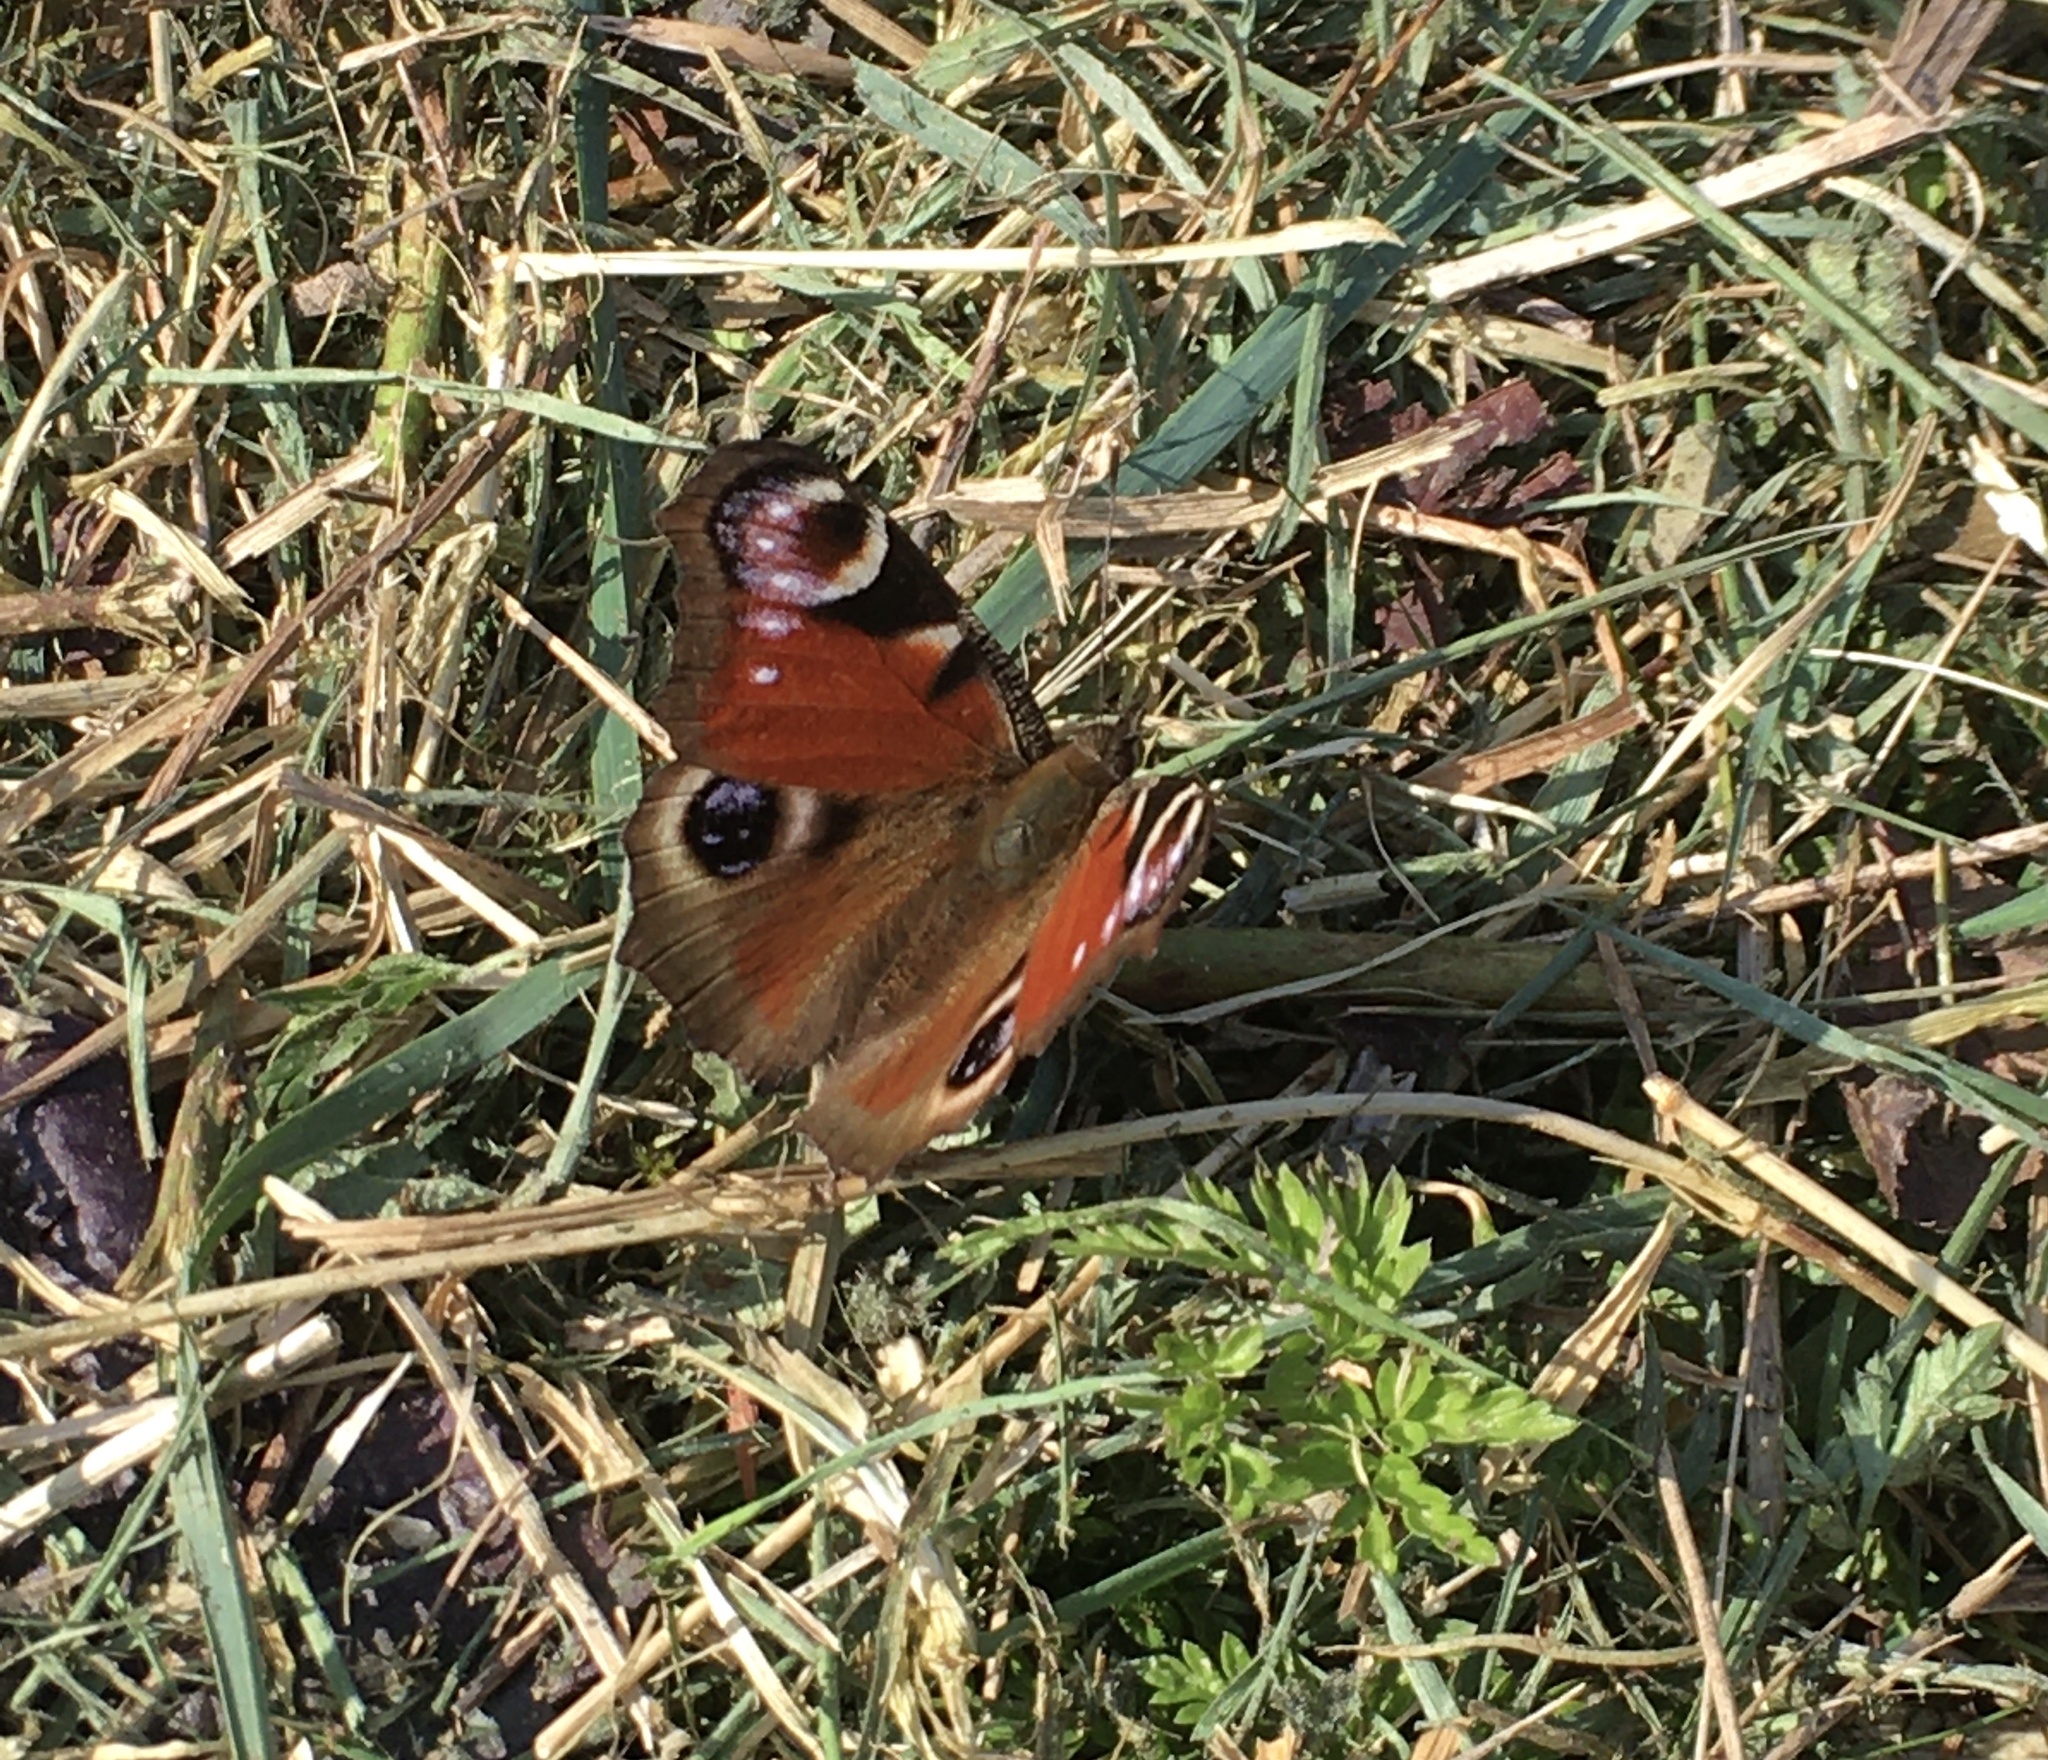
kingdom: Animalia
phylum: Arthropoda
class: Insecta
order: Lepidoptera
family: Nymphalidae
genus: Aglais
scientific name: Aglais io
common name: Peacock
